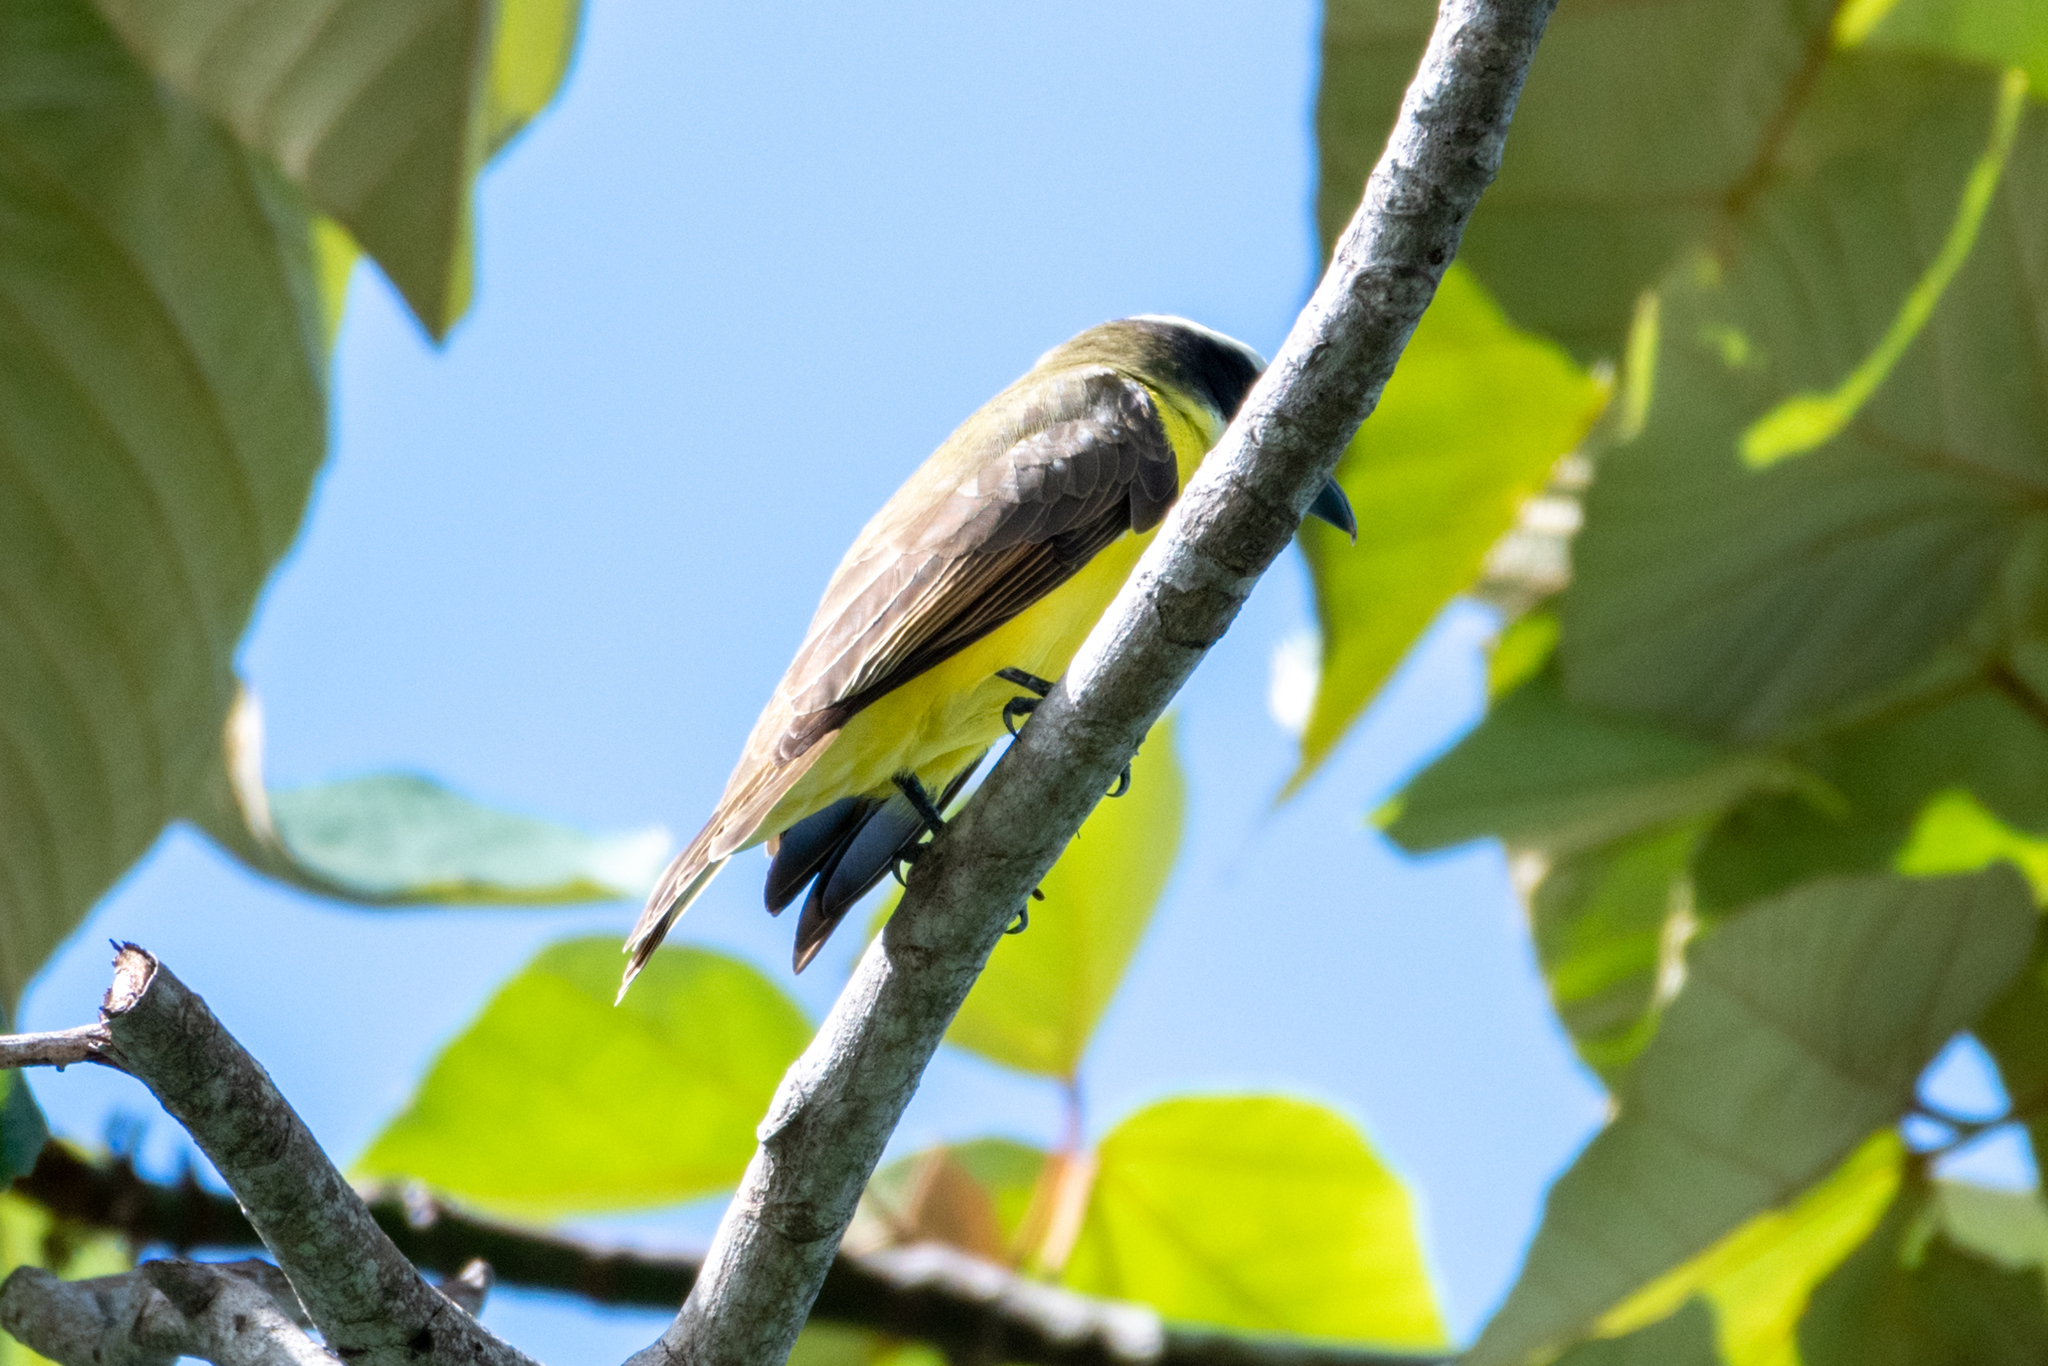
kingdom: Animalia
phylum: Chordata
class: Aves
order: Passeriformes
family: Tyrannidae
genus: Megarynchus
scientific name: Megarynchus pitangua
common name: Boat-billed flycatcher
